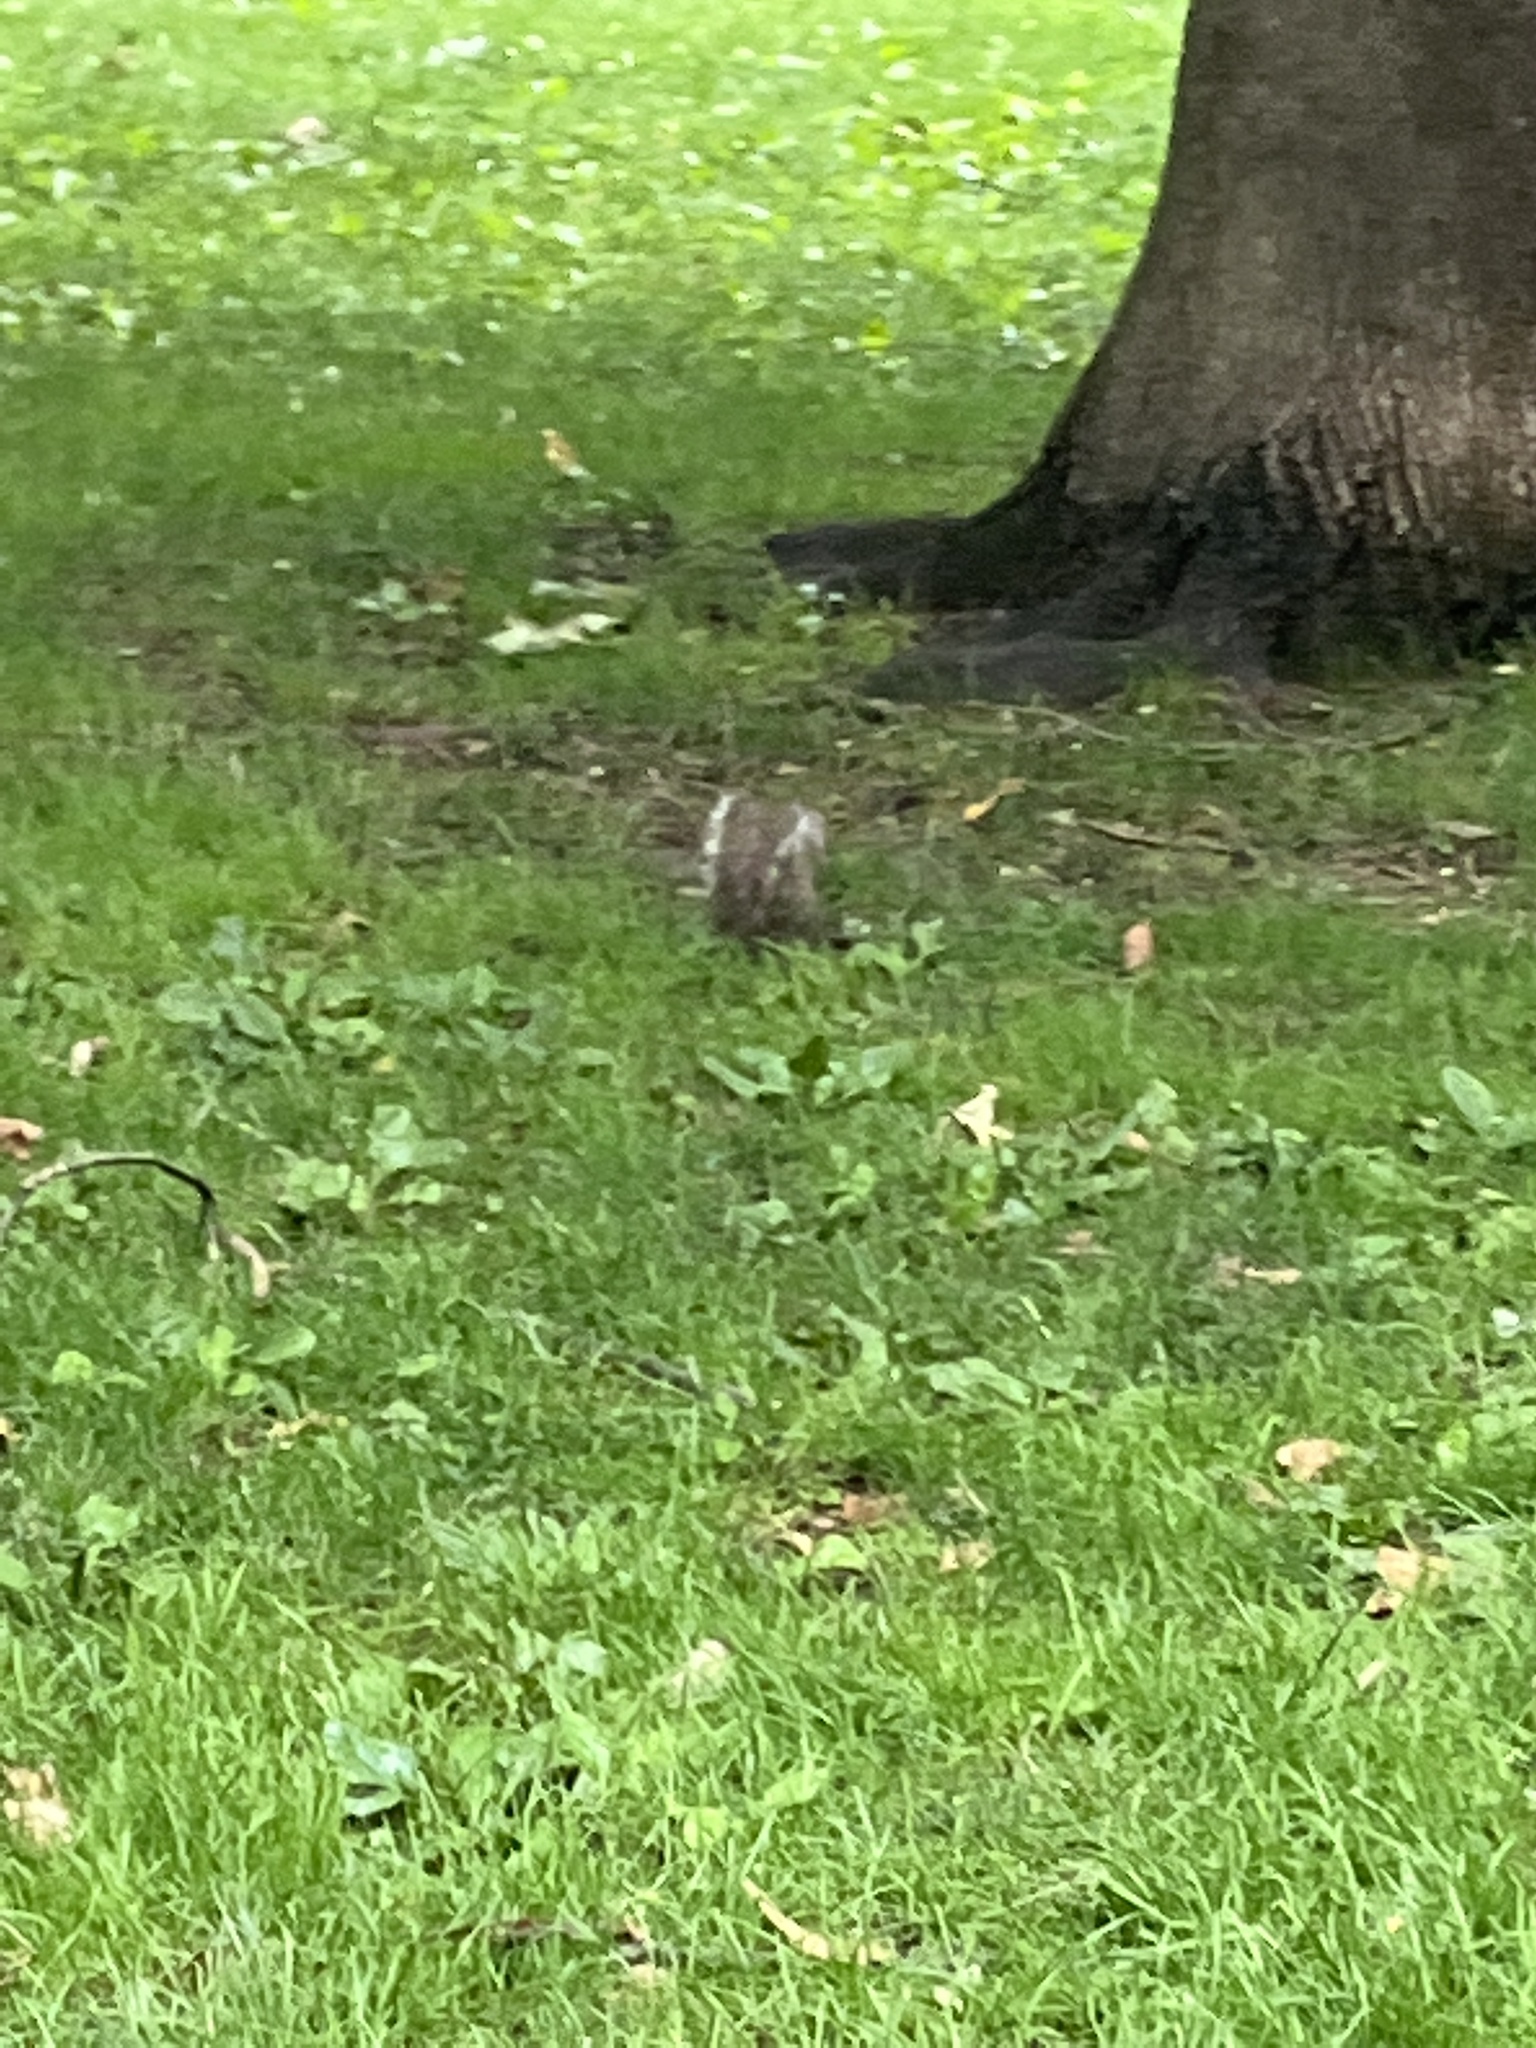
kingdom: Animalia
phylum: Chordata
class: Mammalia
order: Rodentia
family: Sciuridae
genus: Sciurus
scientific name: Sciurus carolinensis
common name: Eastern gray squirrel
